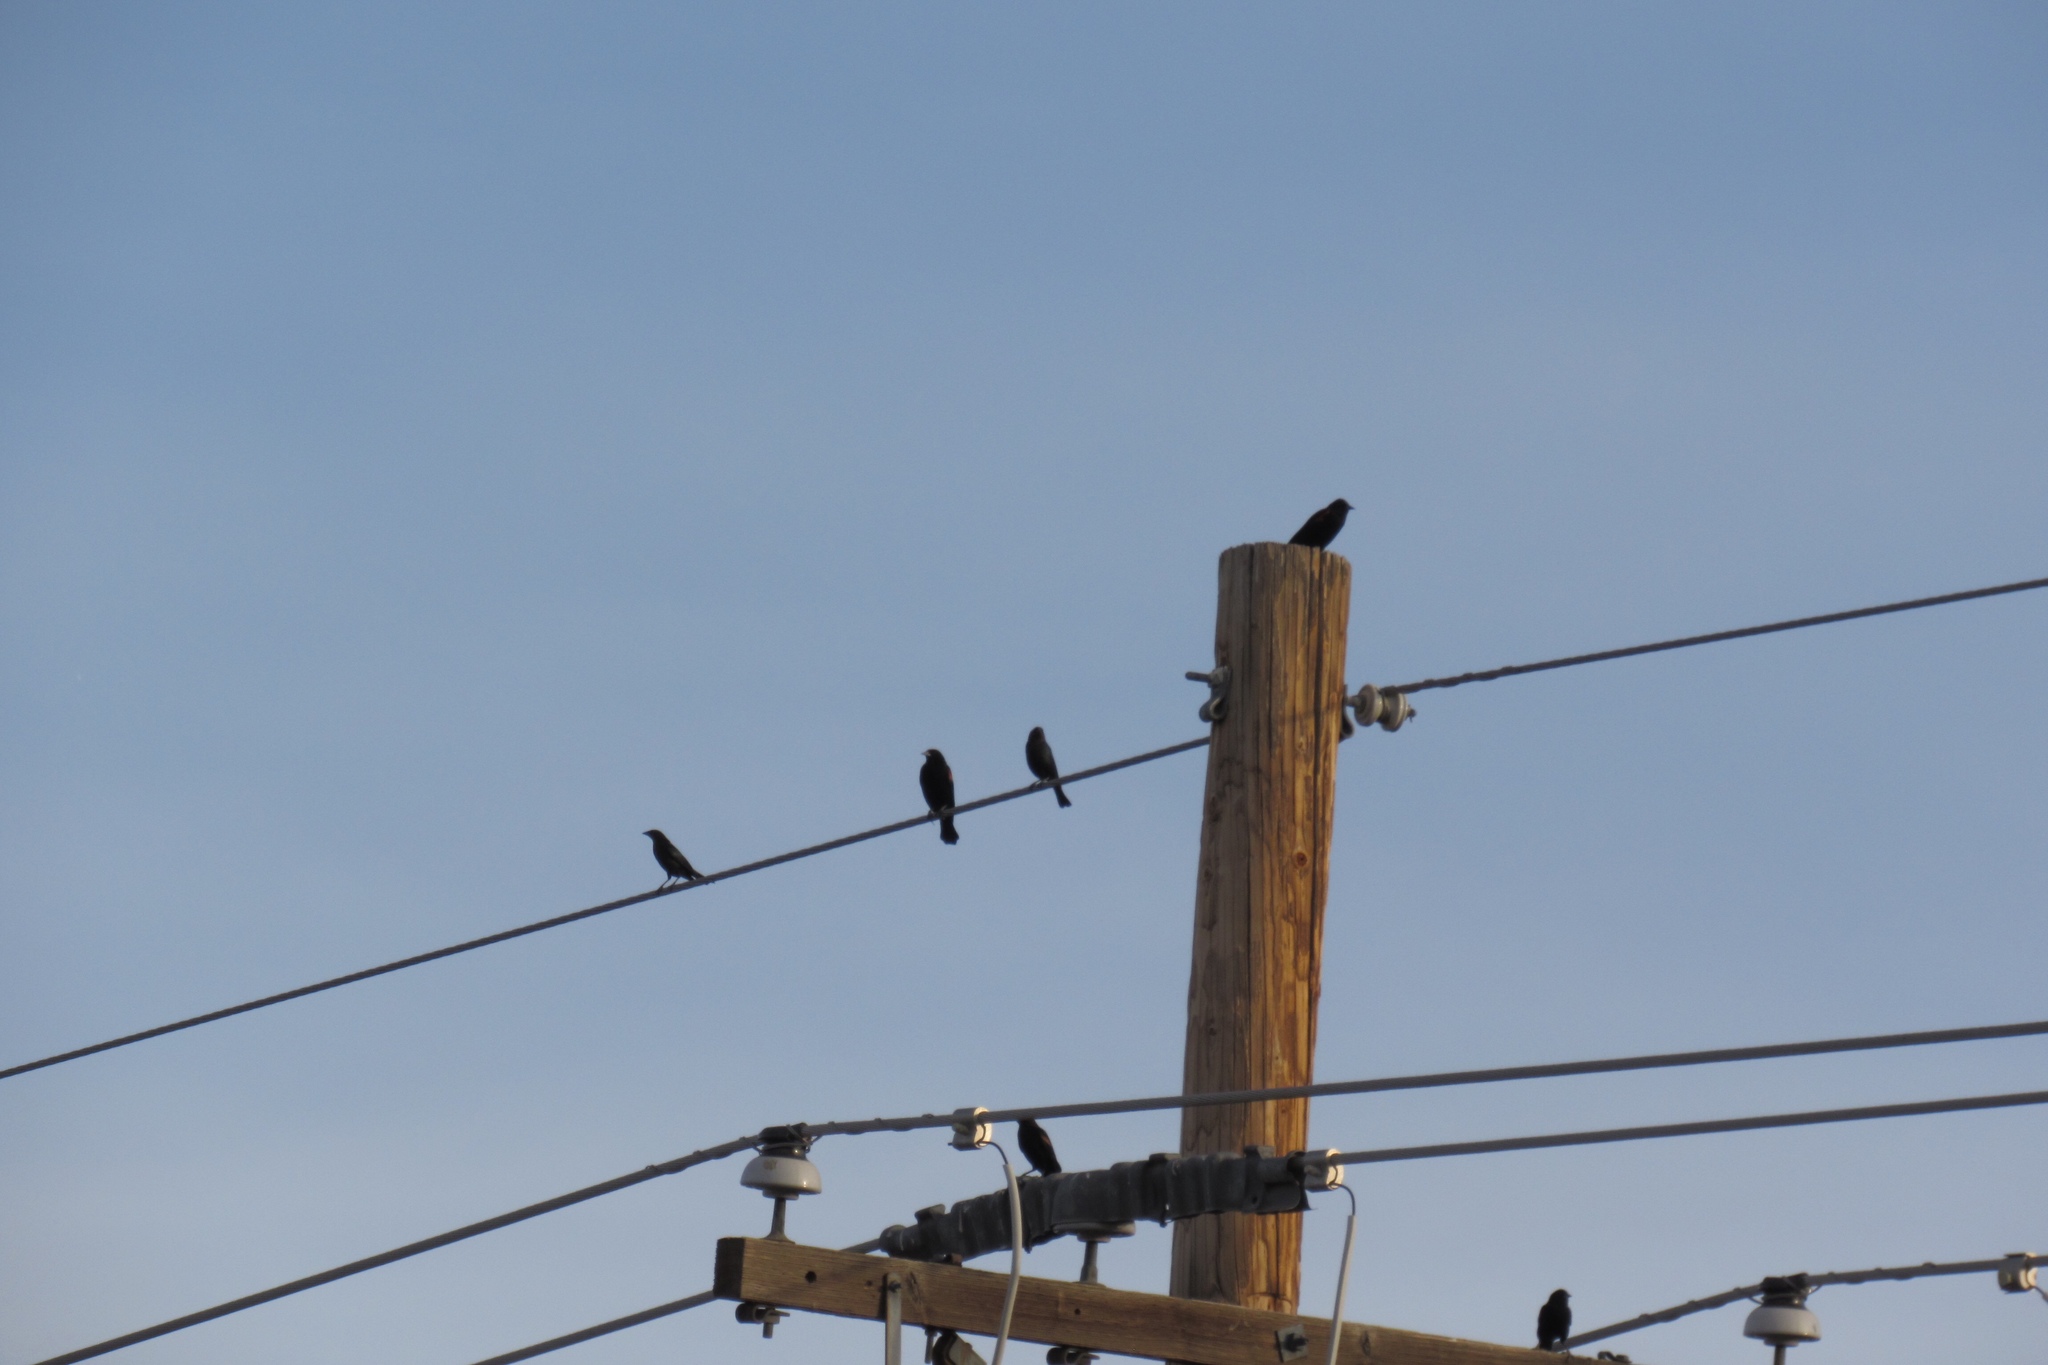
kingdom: Animalia
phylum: Chordata
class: Aves
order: Passeriformes
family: Icteridae
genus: Agelaius
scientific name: Agelaius phoeniceus
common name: Red-winged blackbird
